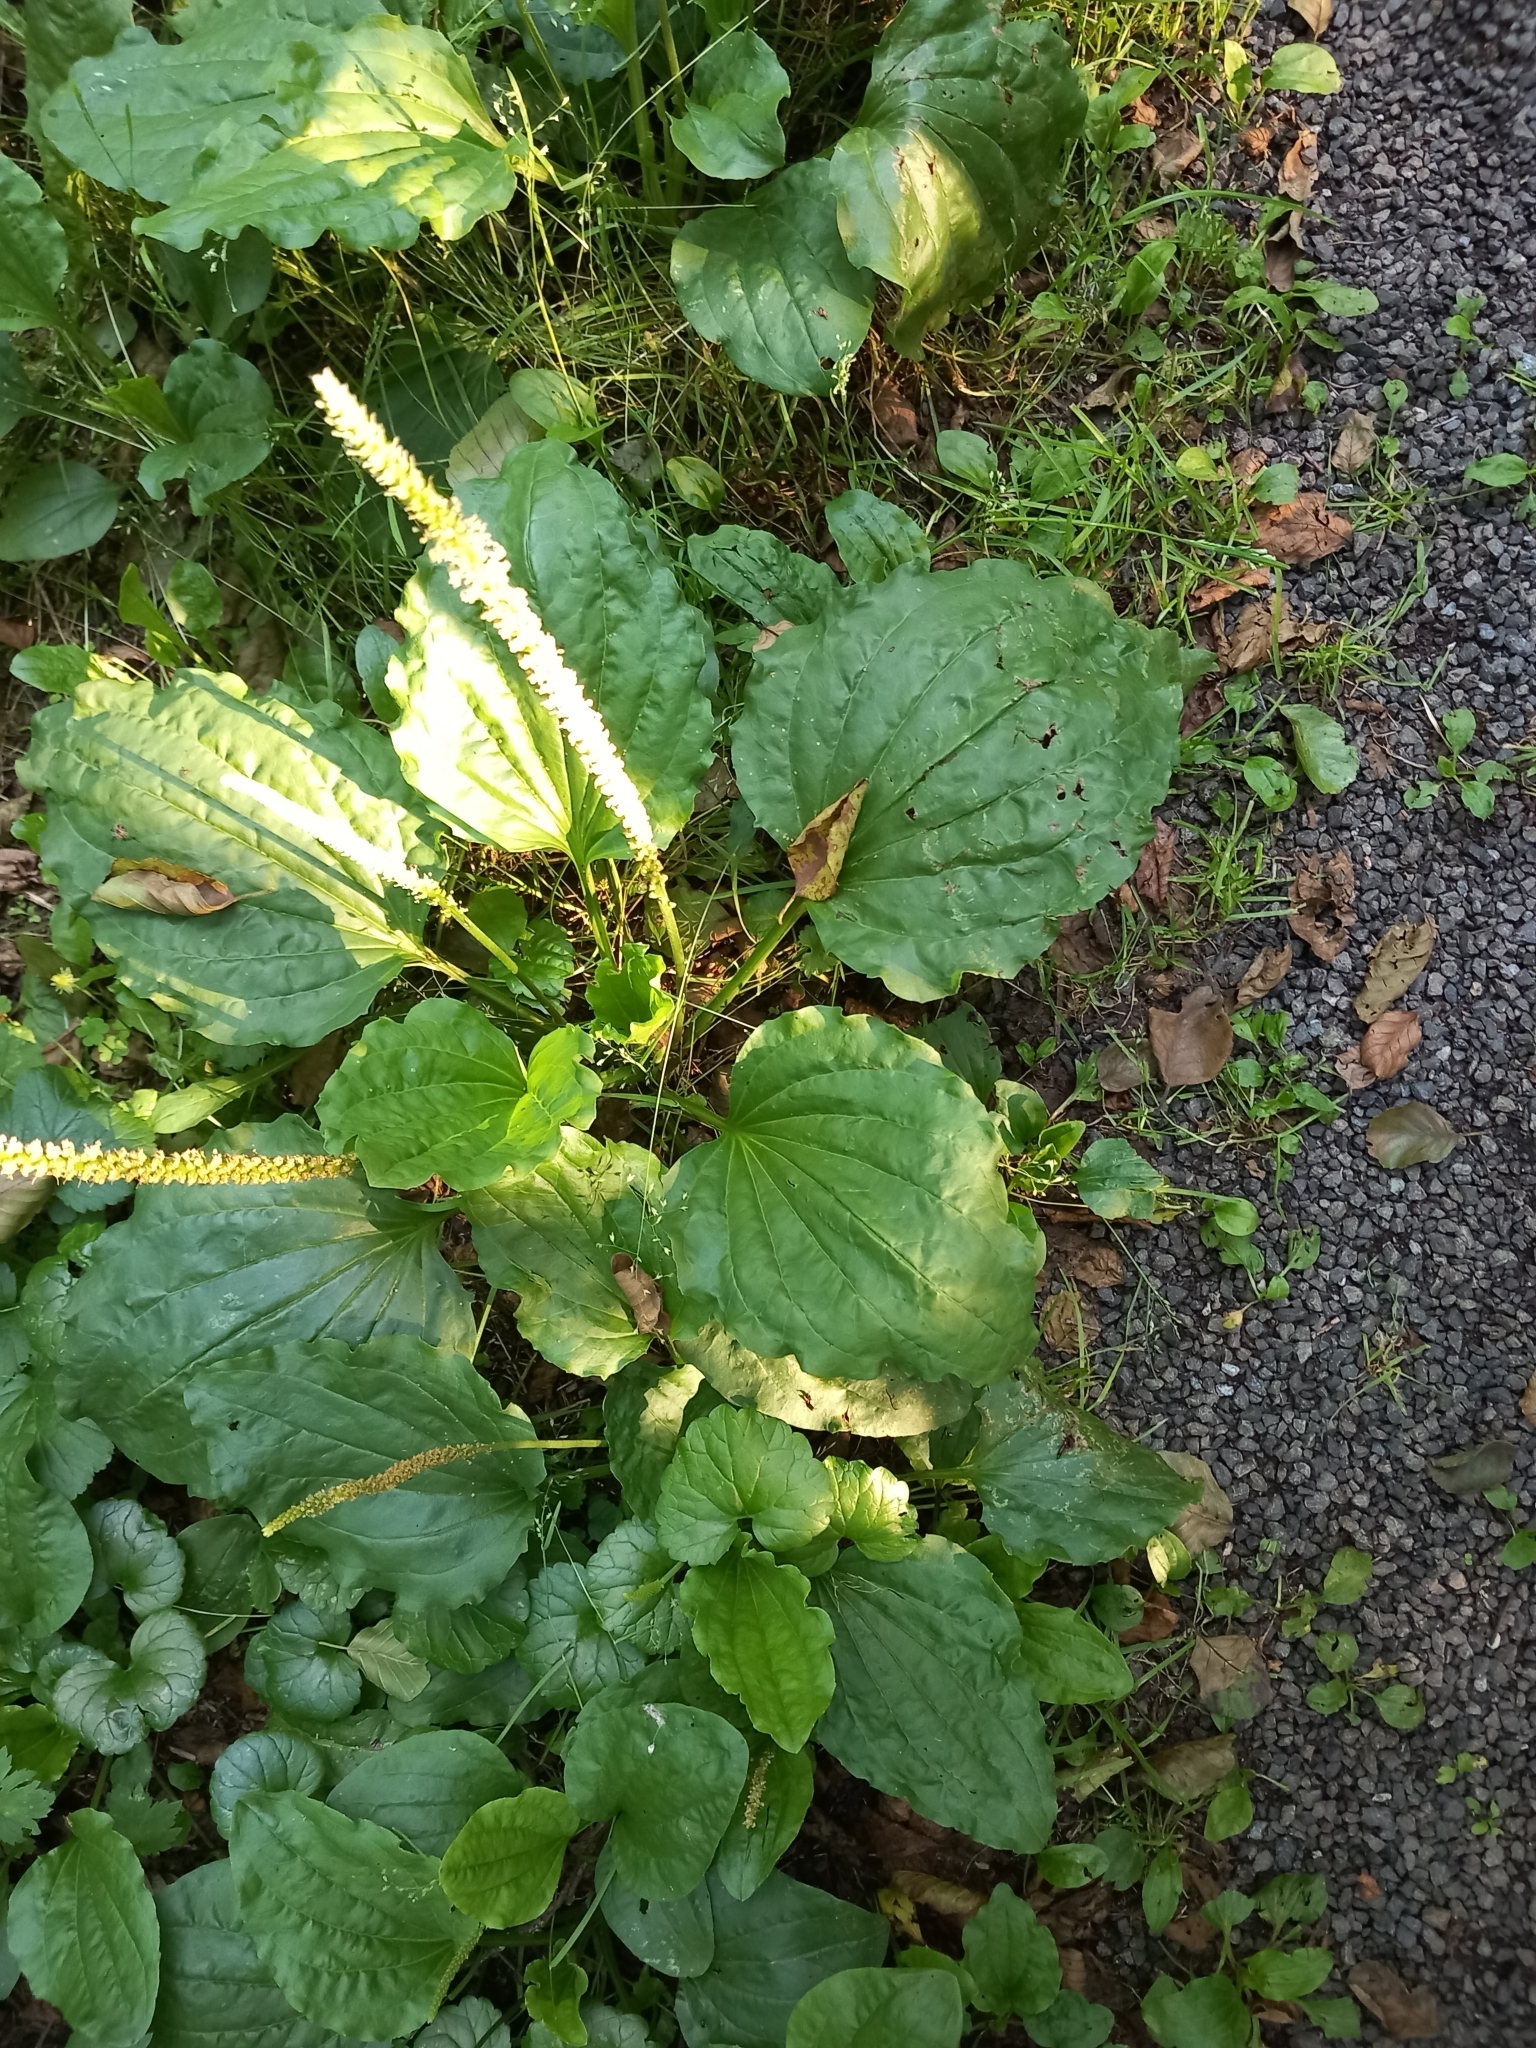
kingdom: Plantae
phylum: Tracheophyta
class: Magnoliopsida
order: Lamiales
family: Plantaginaceae
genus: Plantago
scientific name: Plantago major
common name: Common plantain
